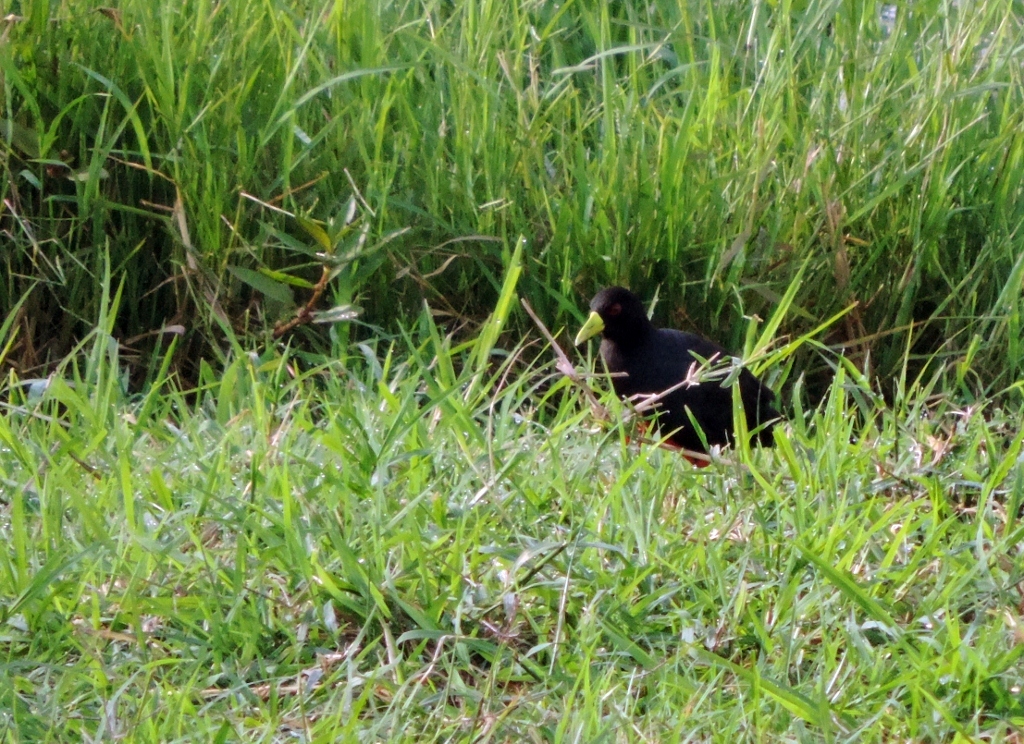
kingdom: Animalia
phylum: Chordata
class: Aves
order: Gruiformes
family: Rallidae
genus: Amaurornis
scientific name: Amaurornis flavirostra
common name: Black crake
